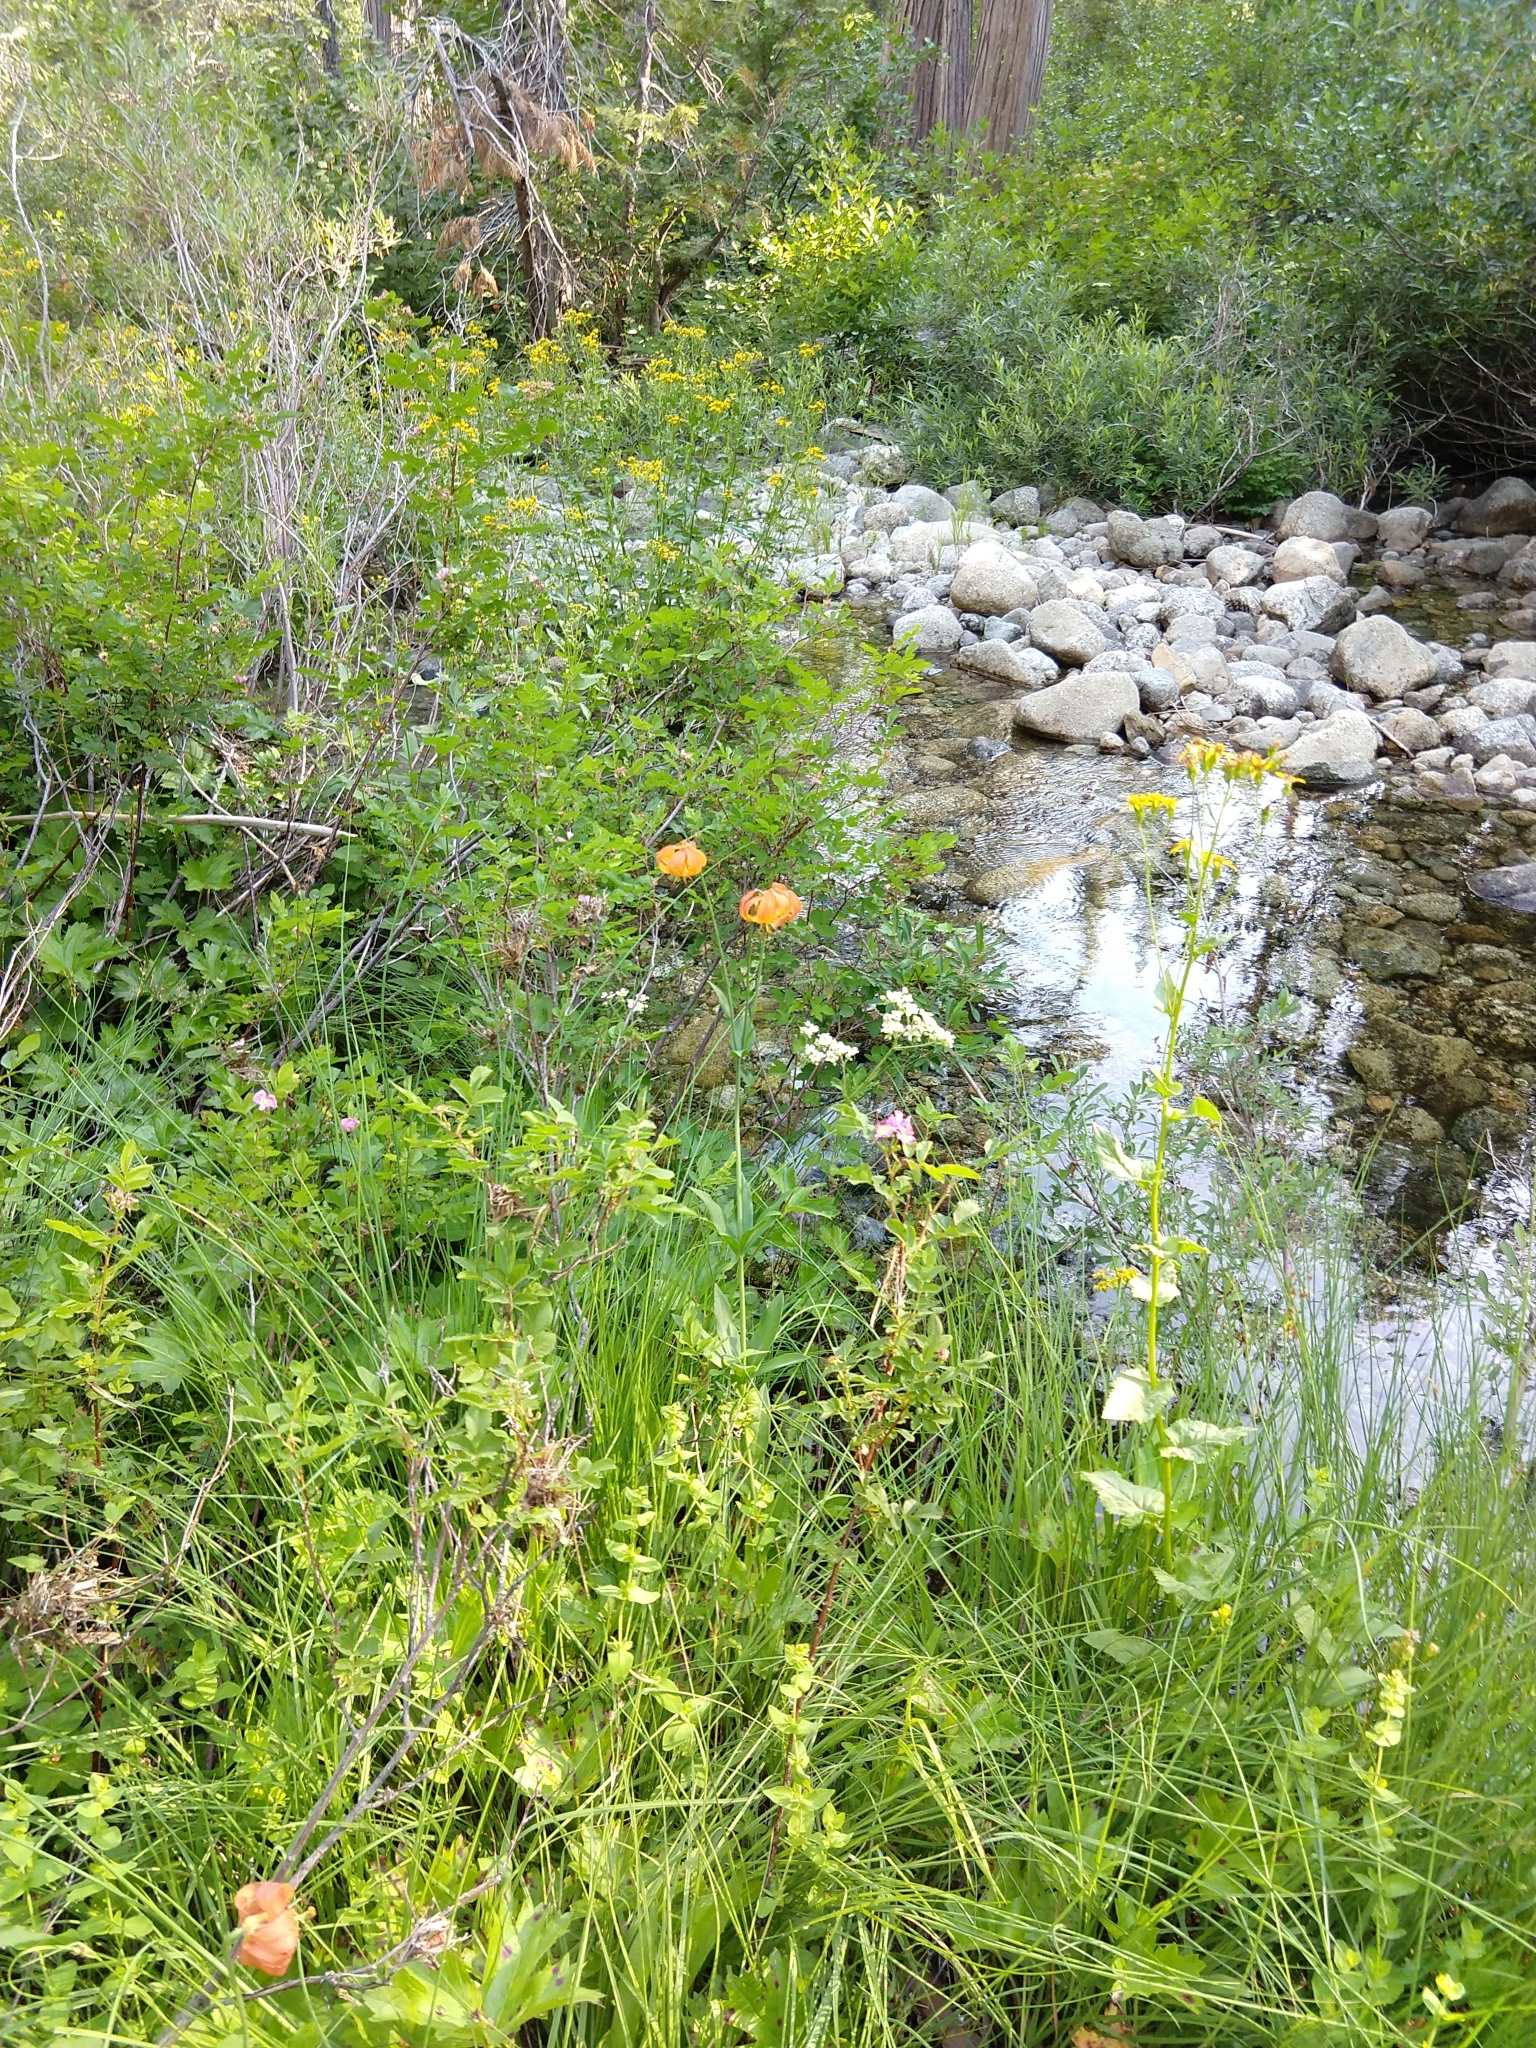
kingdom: Plantae
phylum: Tracheophyta
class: Liliopsida
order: Liliales
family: Liliaceae
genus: Lilium
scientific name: Lilium pardalinum
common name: Panther lily
